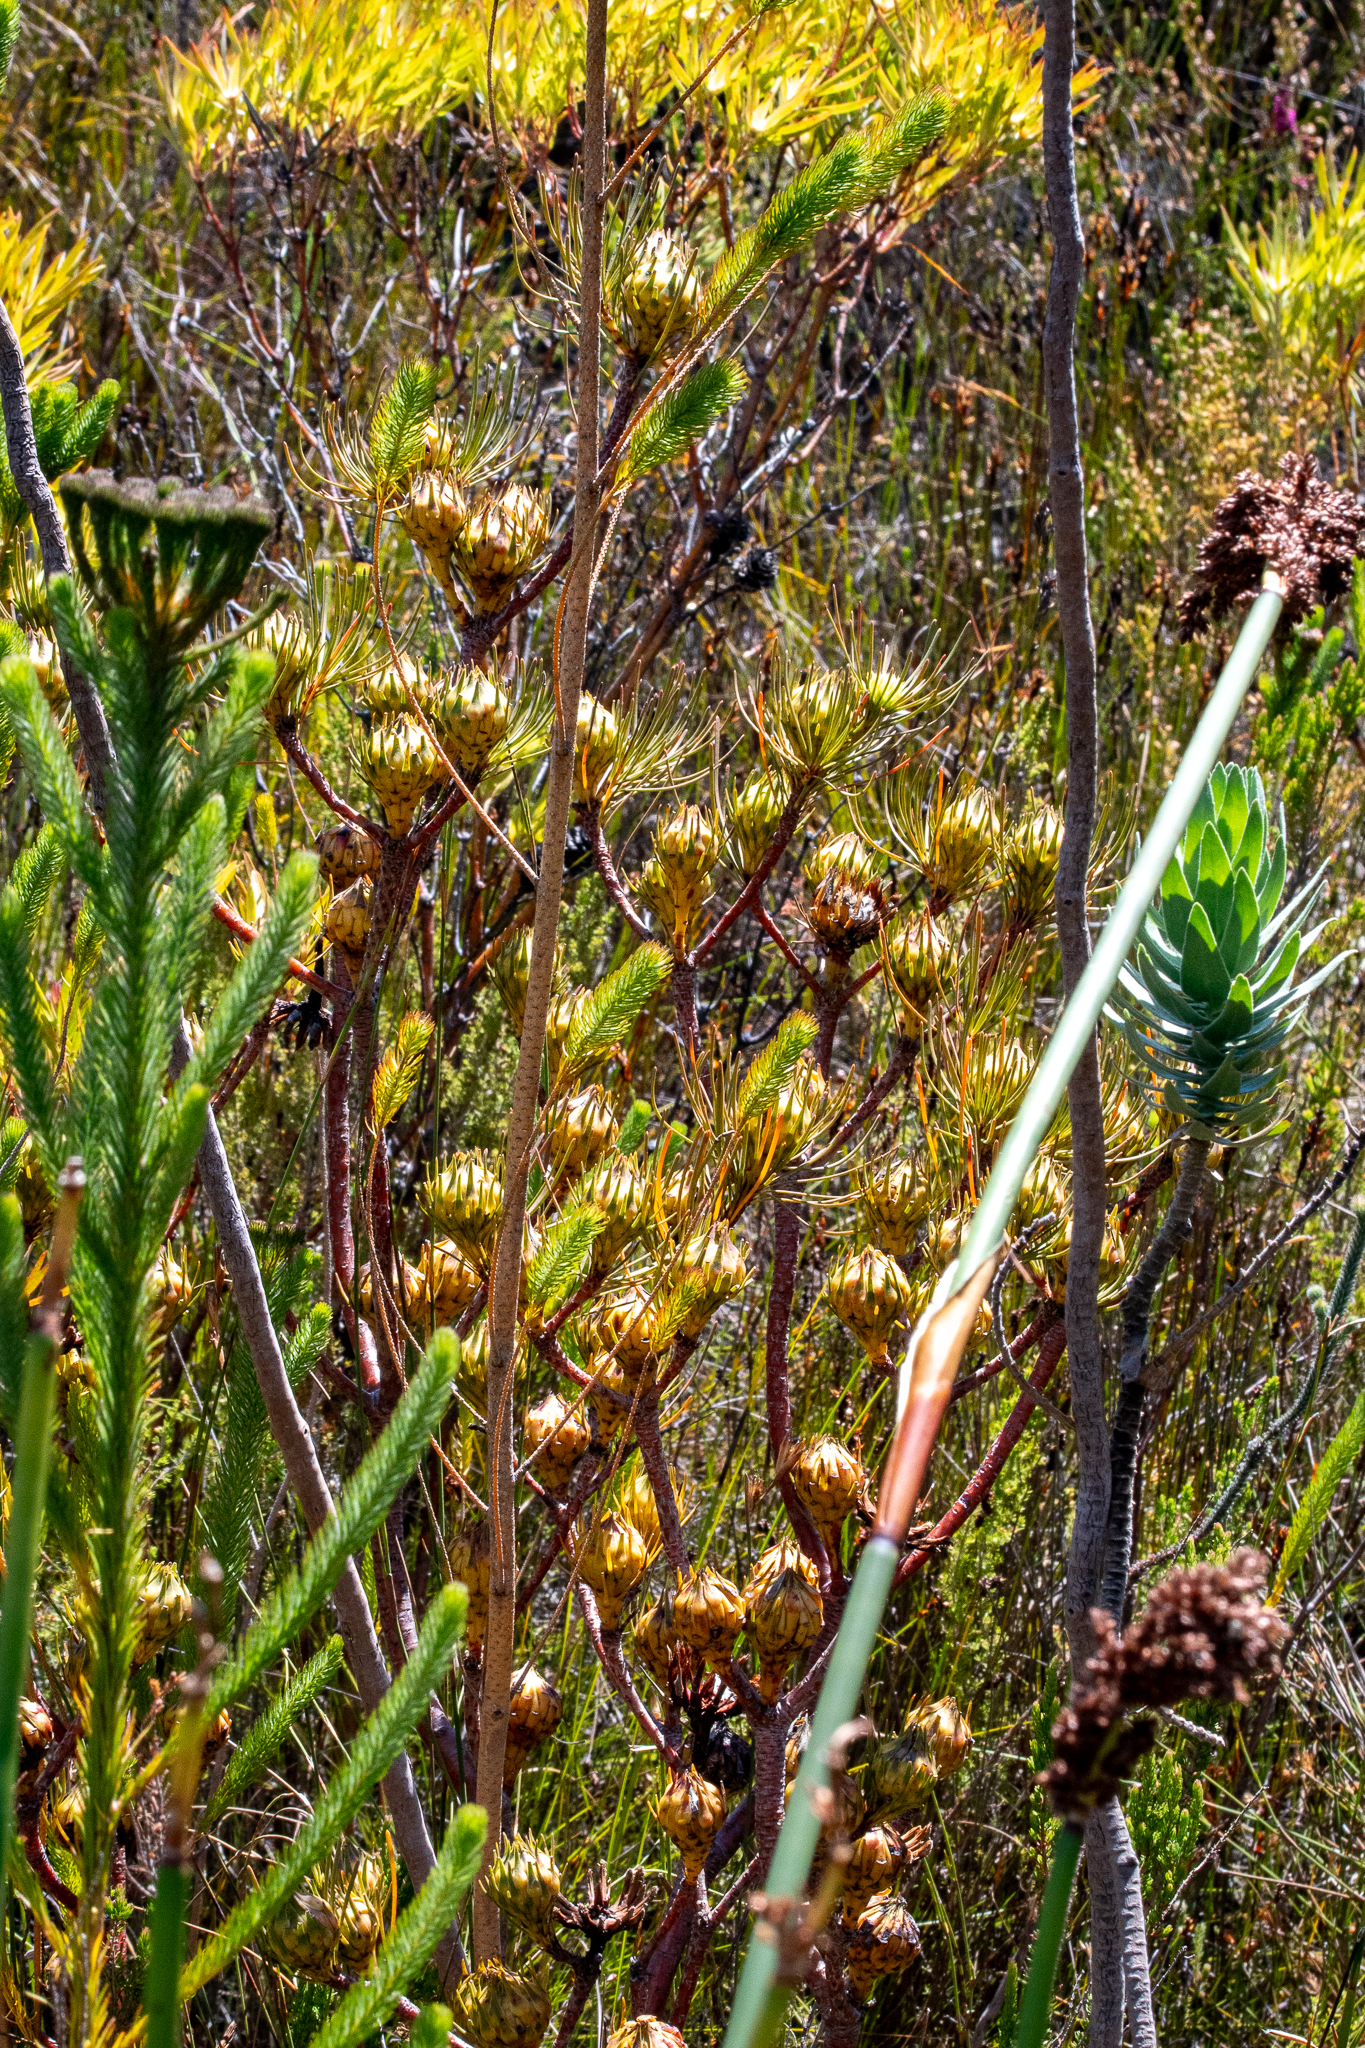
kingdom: Plantae
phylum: Tracheophyta
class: Magnoliopsida
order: Proteales
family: Proteaceae
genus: Aulax
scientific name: Aulax cancellata
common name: Channel-leaf featherbush
